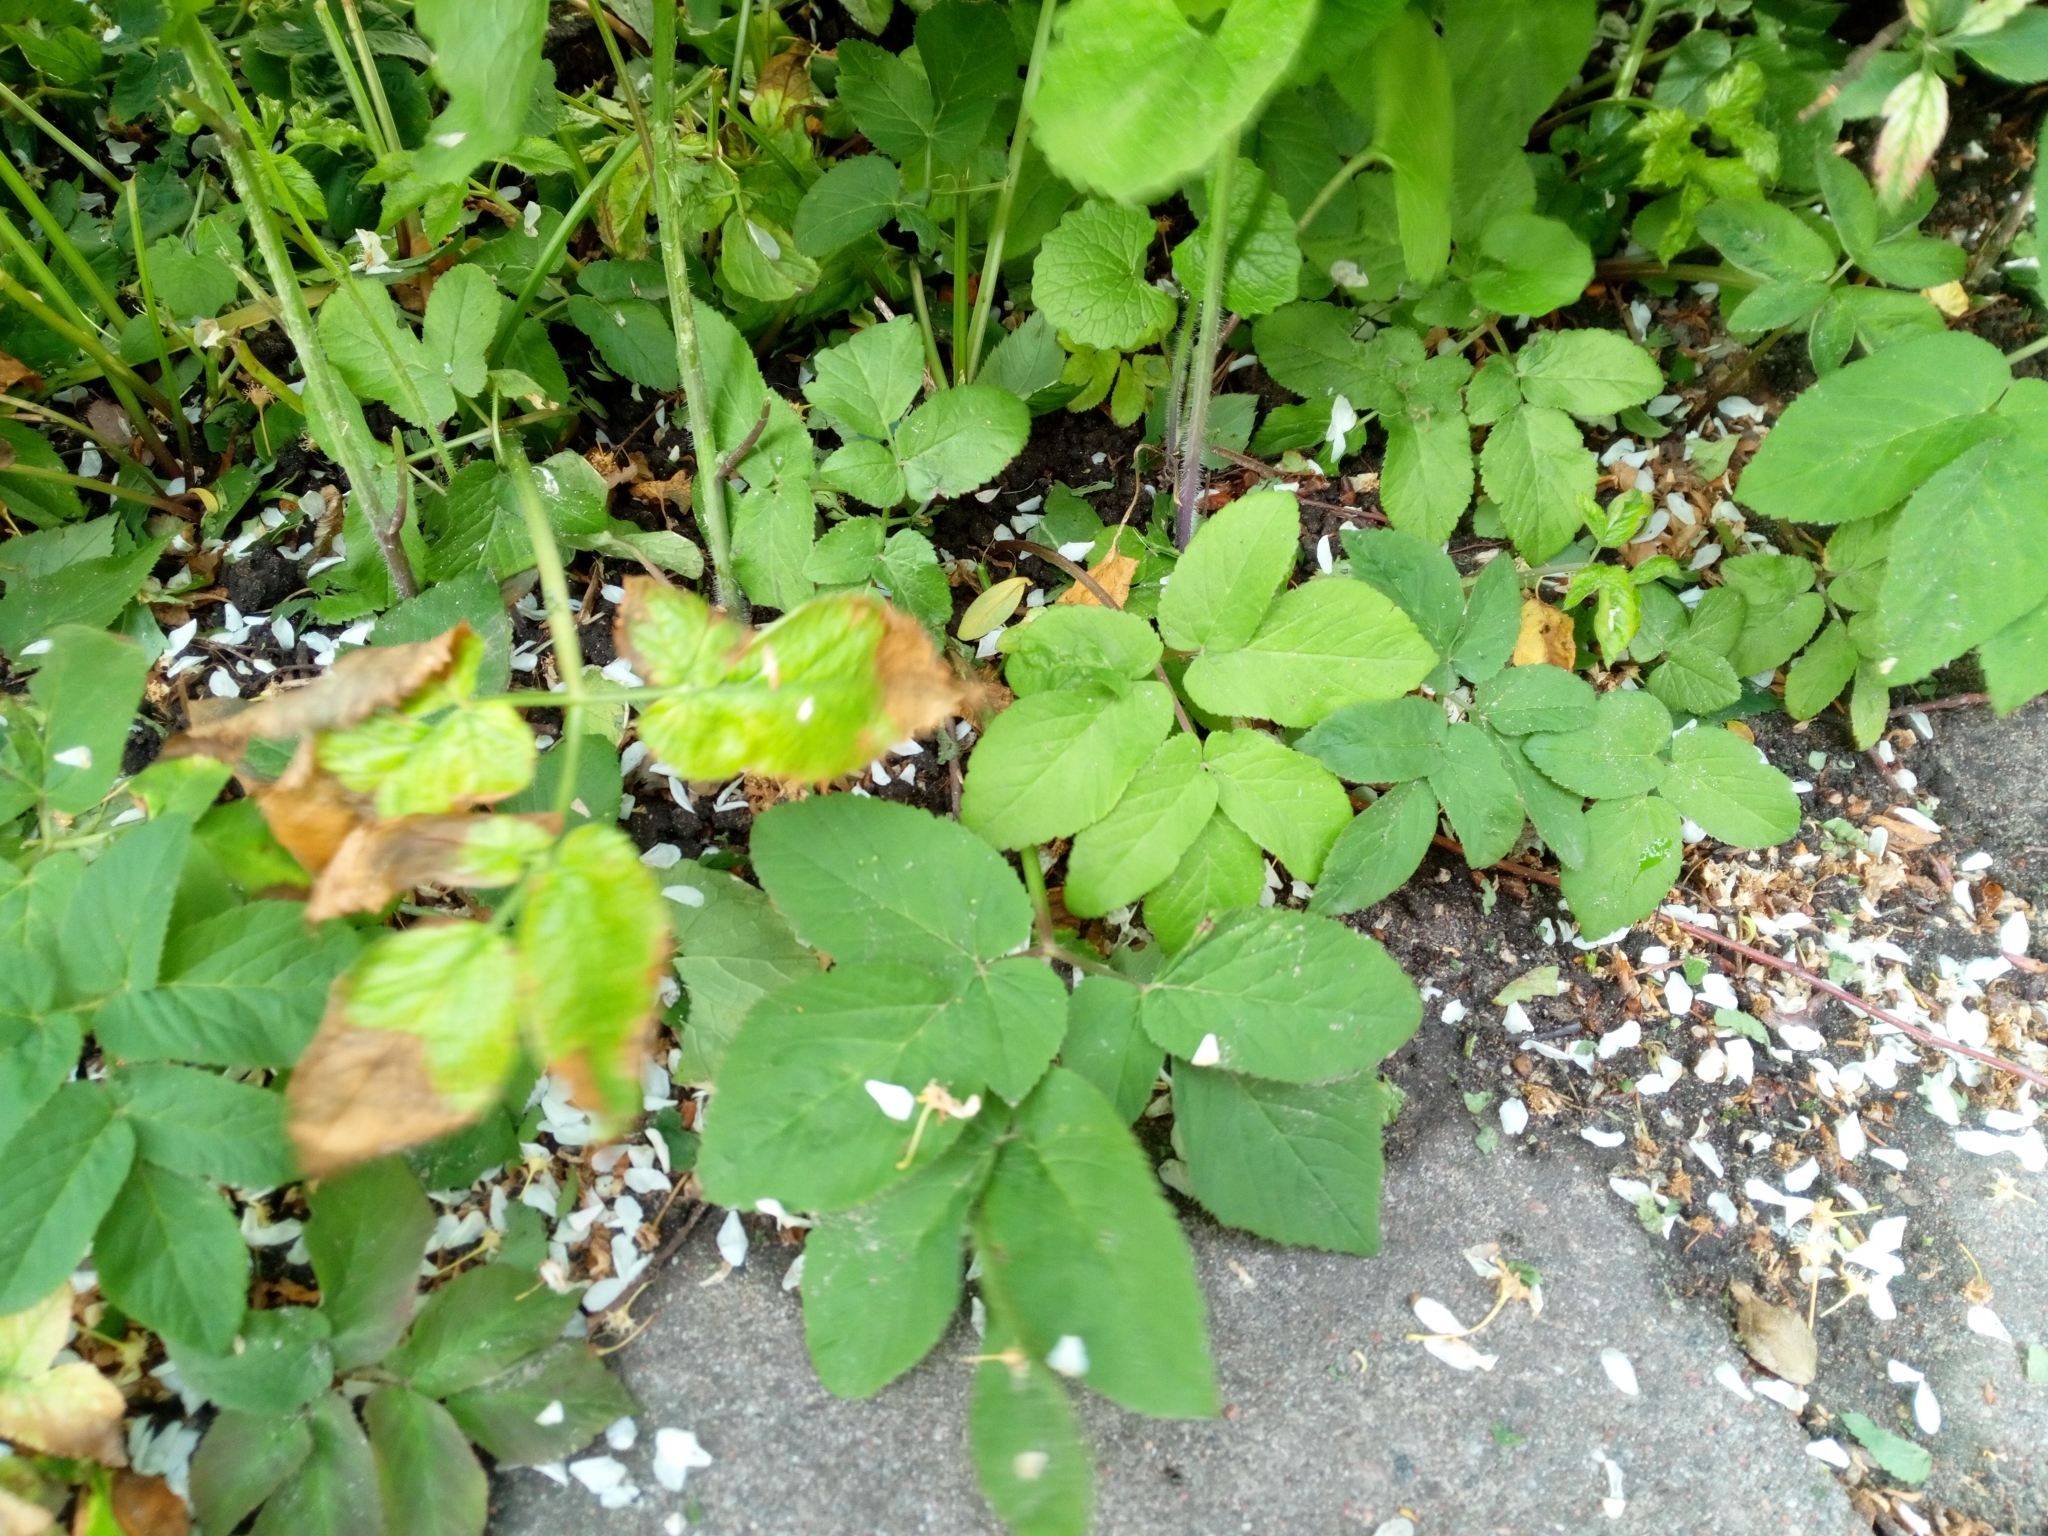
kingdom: Plantae
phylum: Tracheophyta
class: Magnoliopsida
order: Apiales
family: Apiaceae
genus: Aegopodium
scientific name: Aegopodium podagraria
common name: Ground-elder
